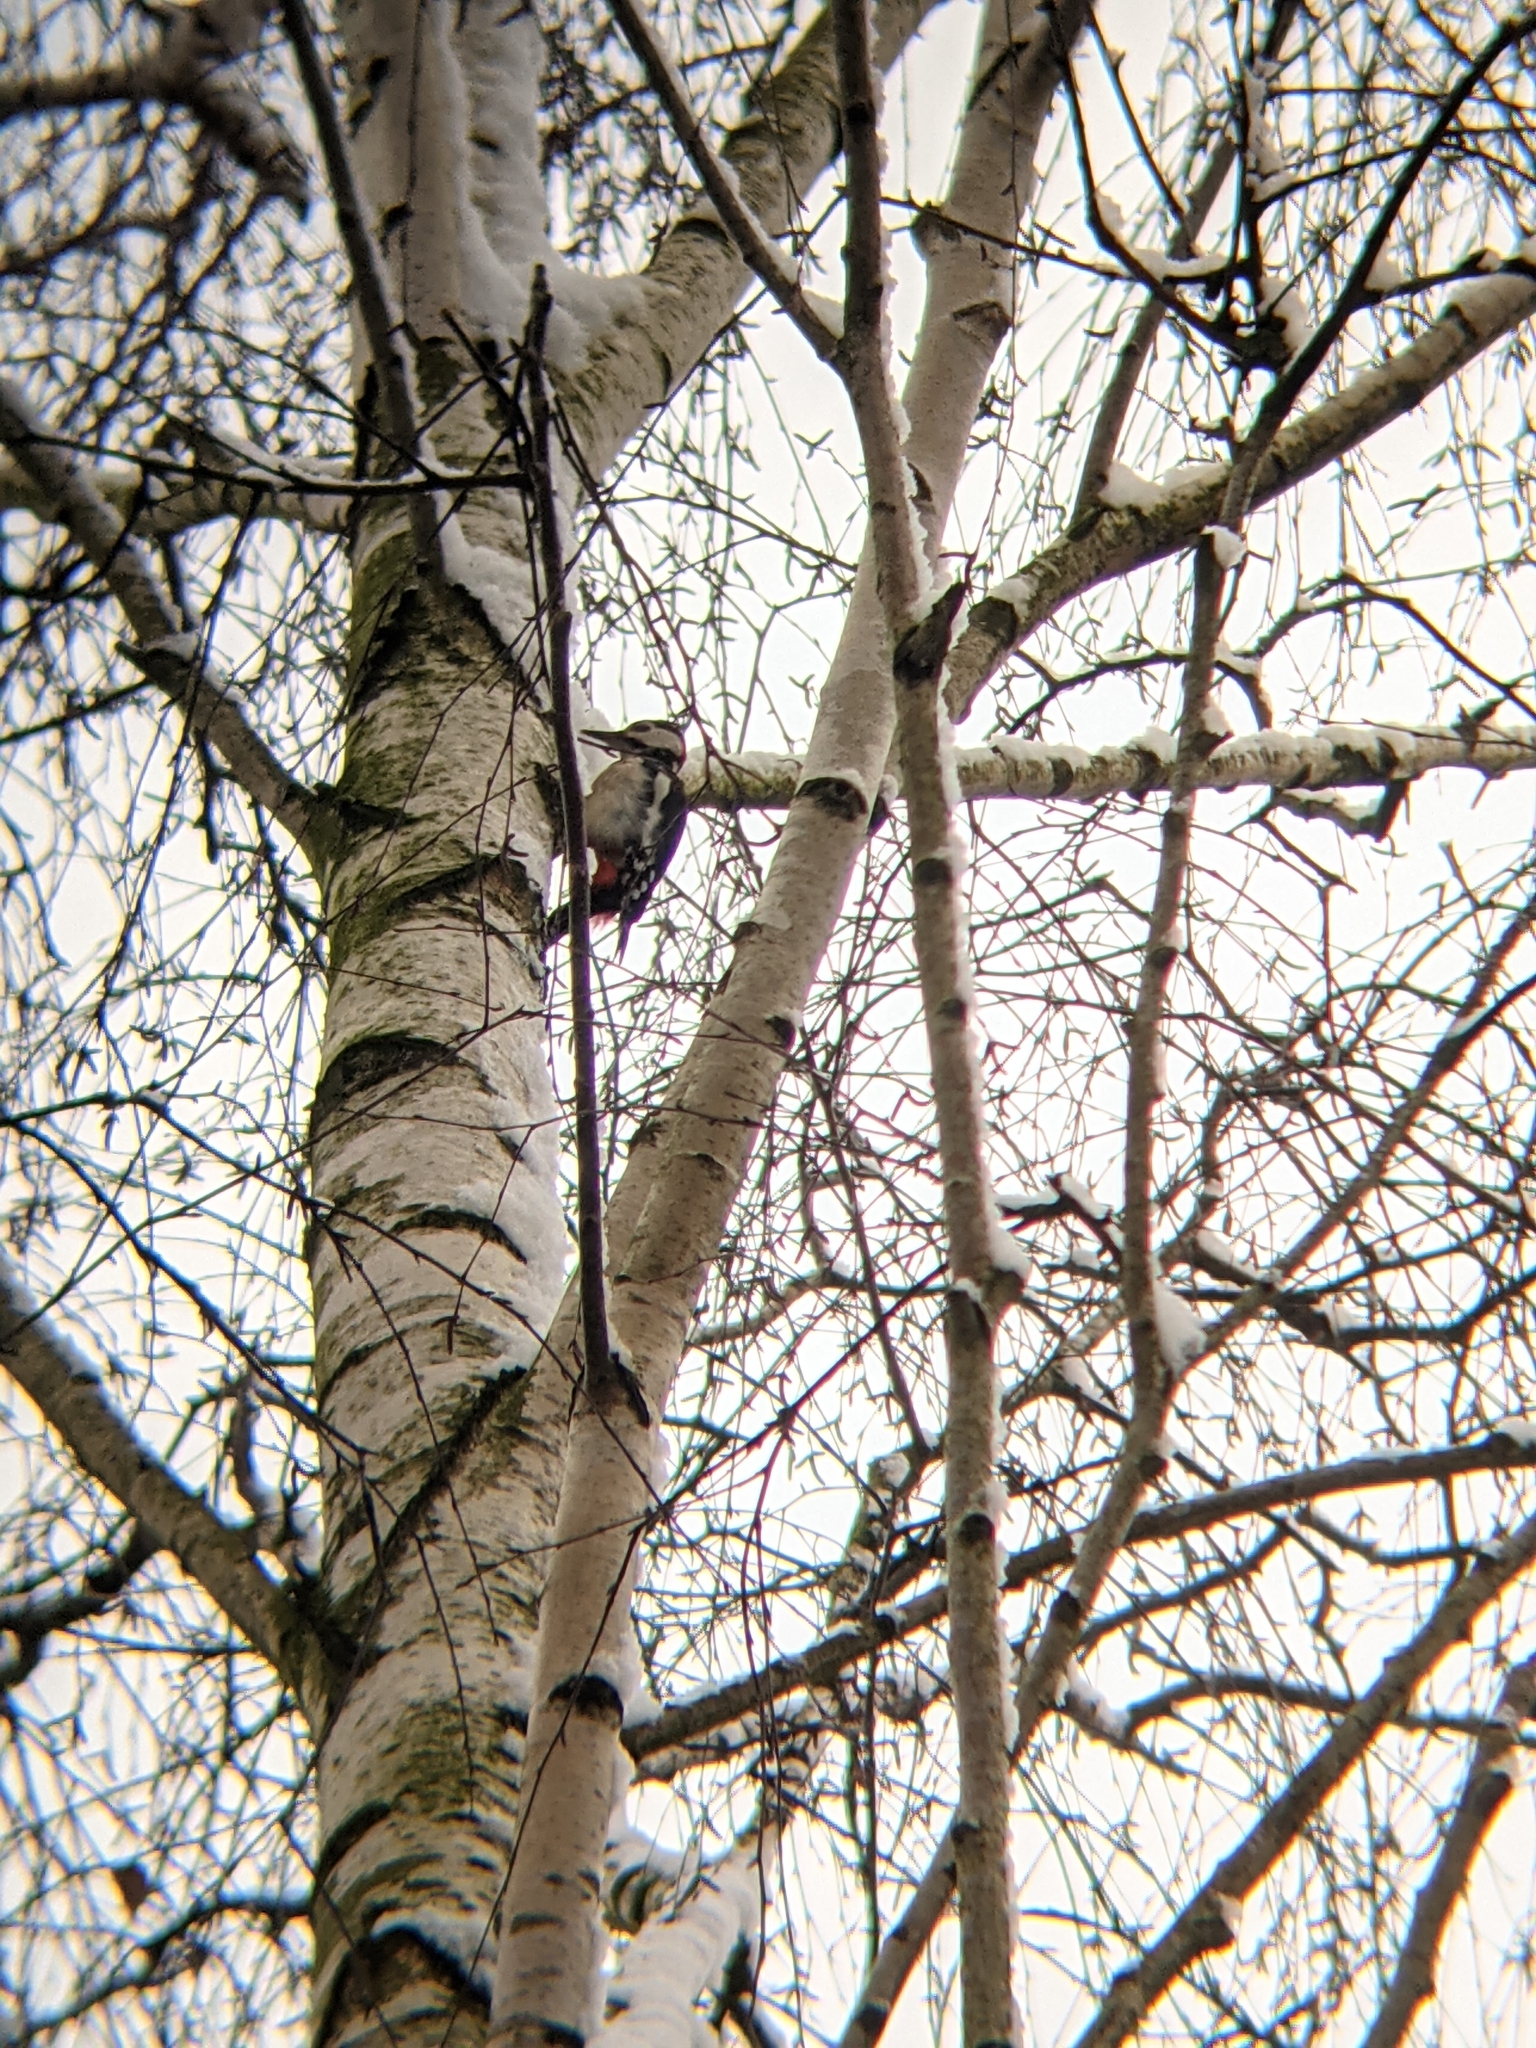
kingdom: Animalia
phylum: Chordata
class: Aves
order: Piciformes
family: Picidae
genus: Dendrocopos
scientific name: Dendrocopos major
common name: Great spotted woodpecker
